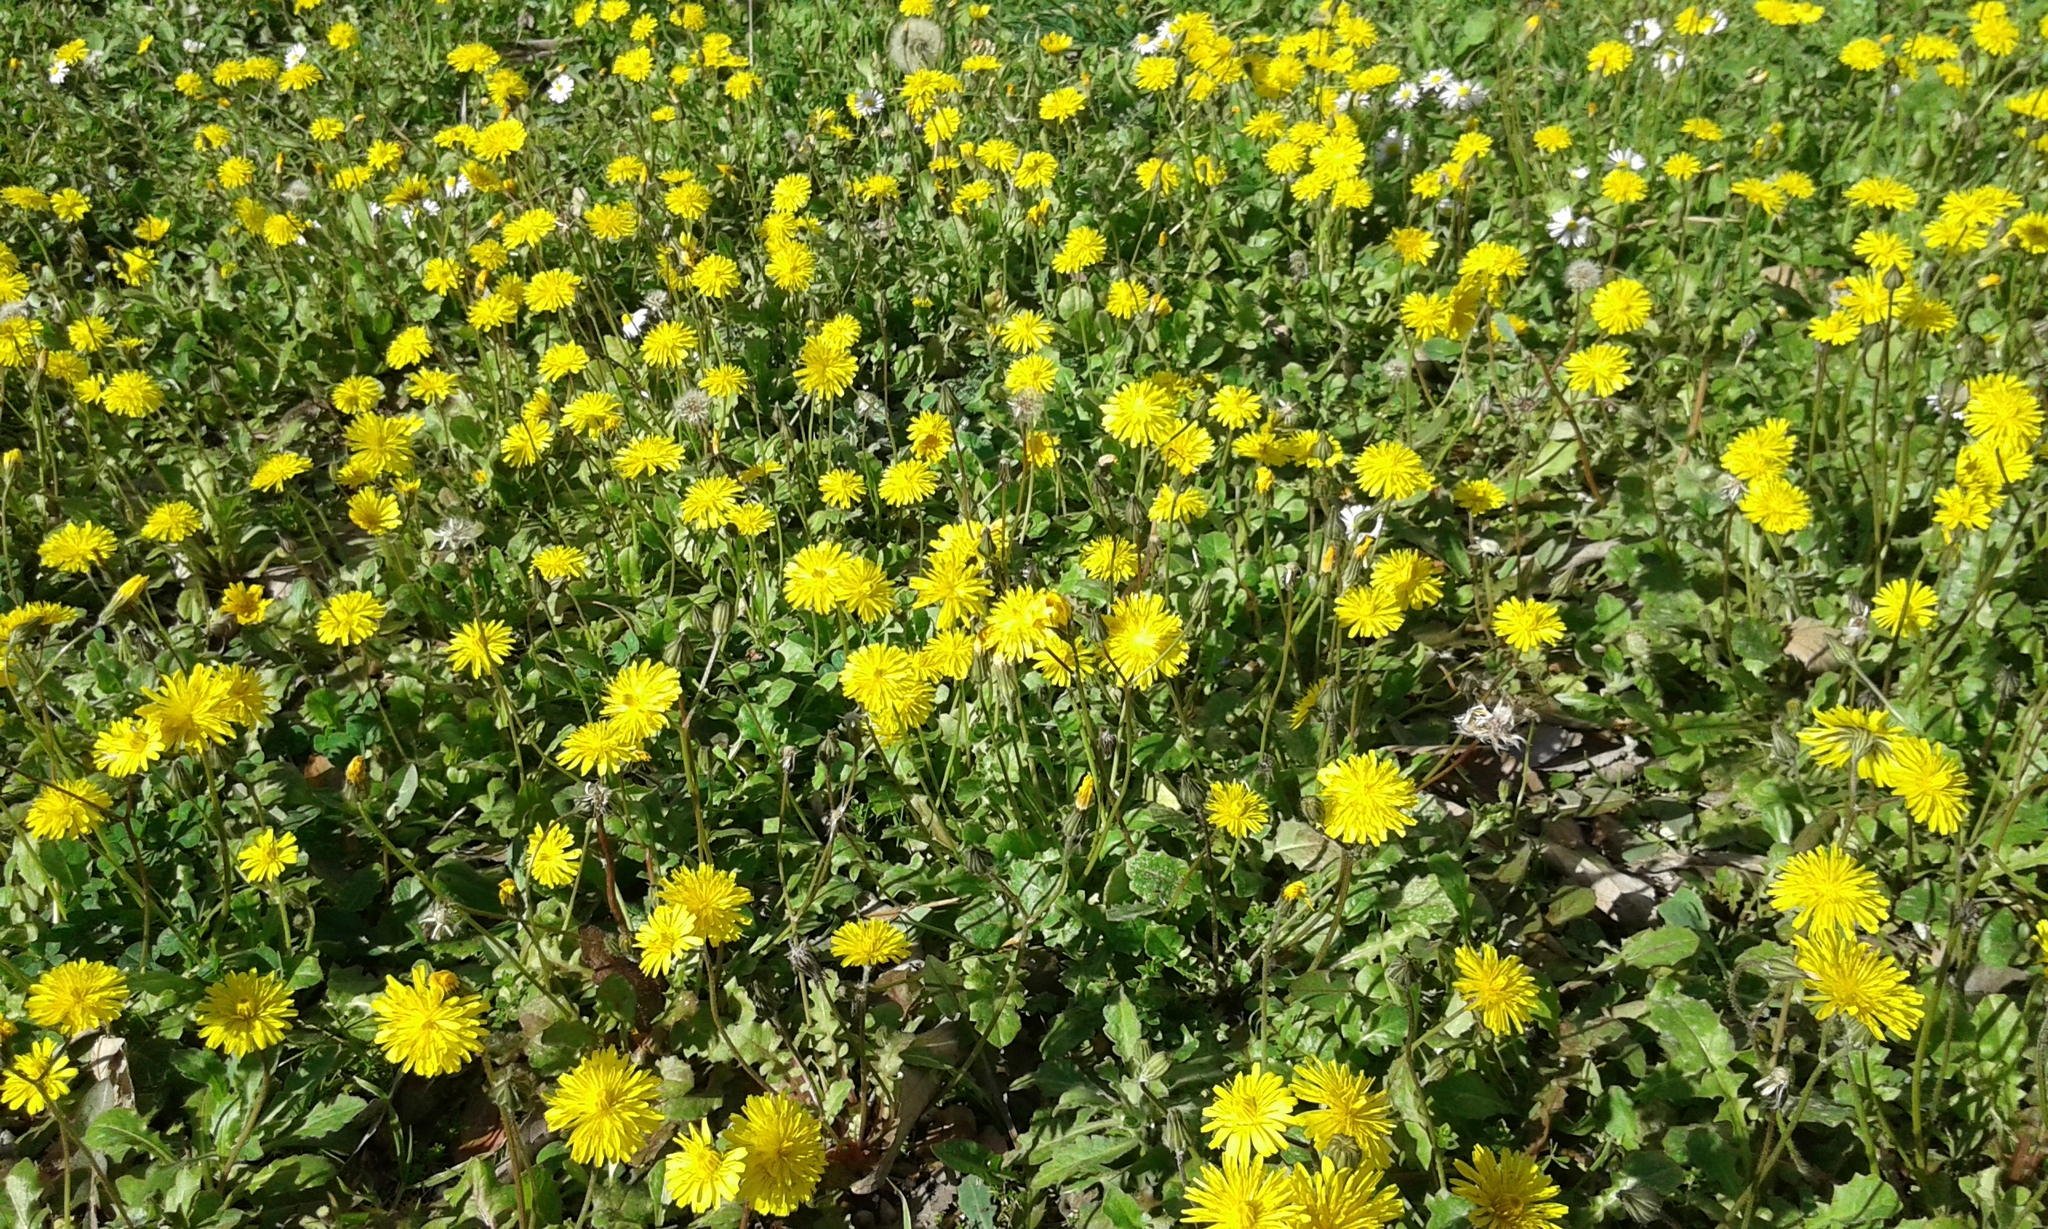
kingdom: Plantae
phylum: Tracheophyta
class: Magnoliopsida
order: Asterales
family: Asteraceae
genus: Crepis
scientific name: Crepis sancta
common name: Hawk's-beard
